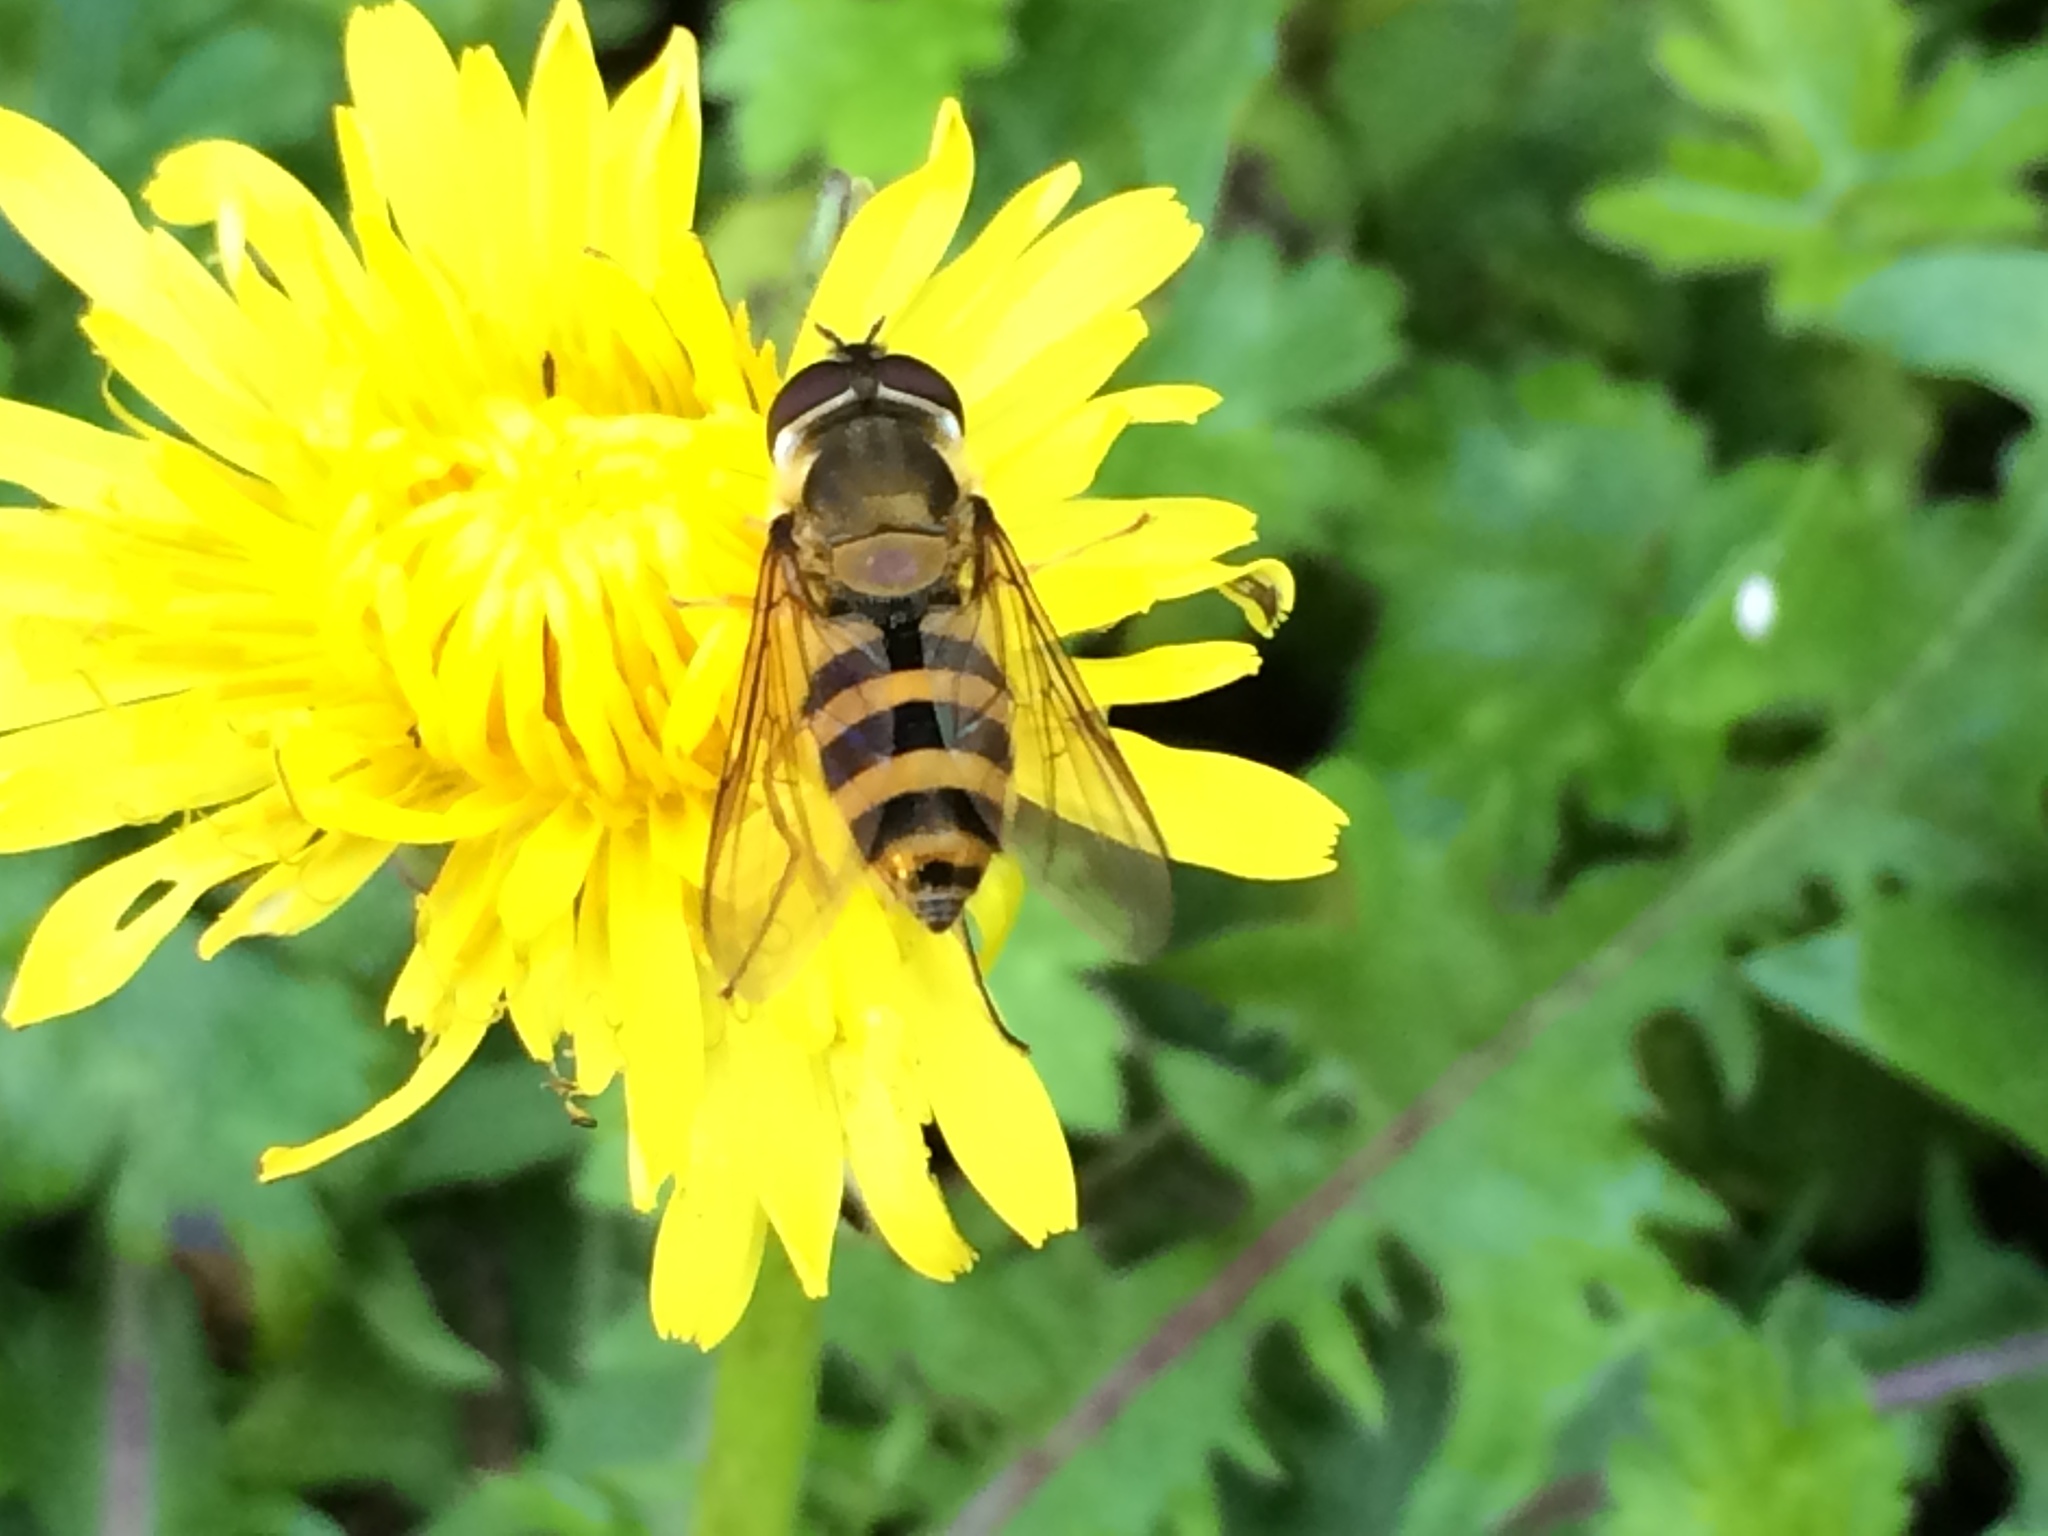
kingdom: Animalia
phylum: Arthropoda
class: Insecta
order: Diptera
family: Syrphidae
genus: Epistrophe
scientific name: Epistrophe grossulariae
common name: Black-horned smoothtail
